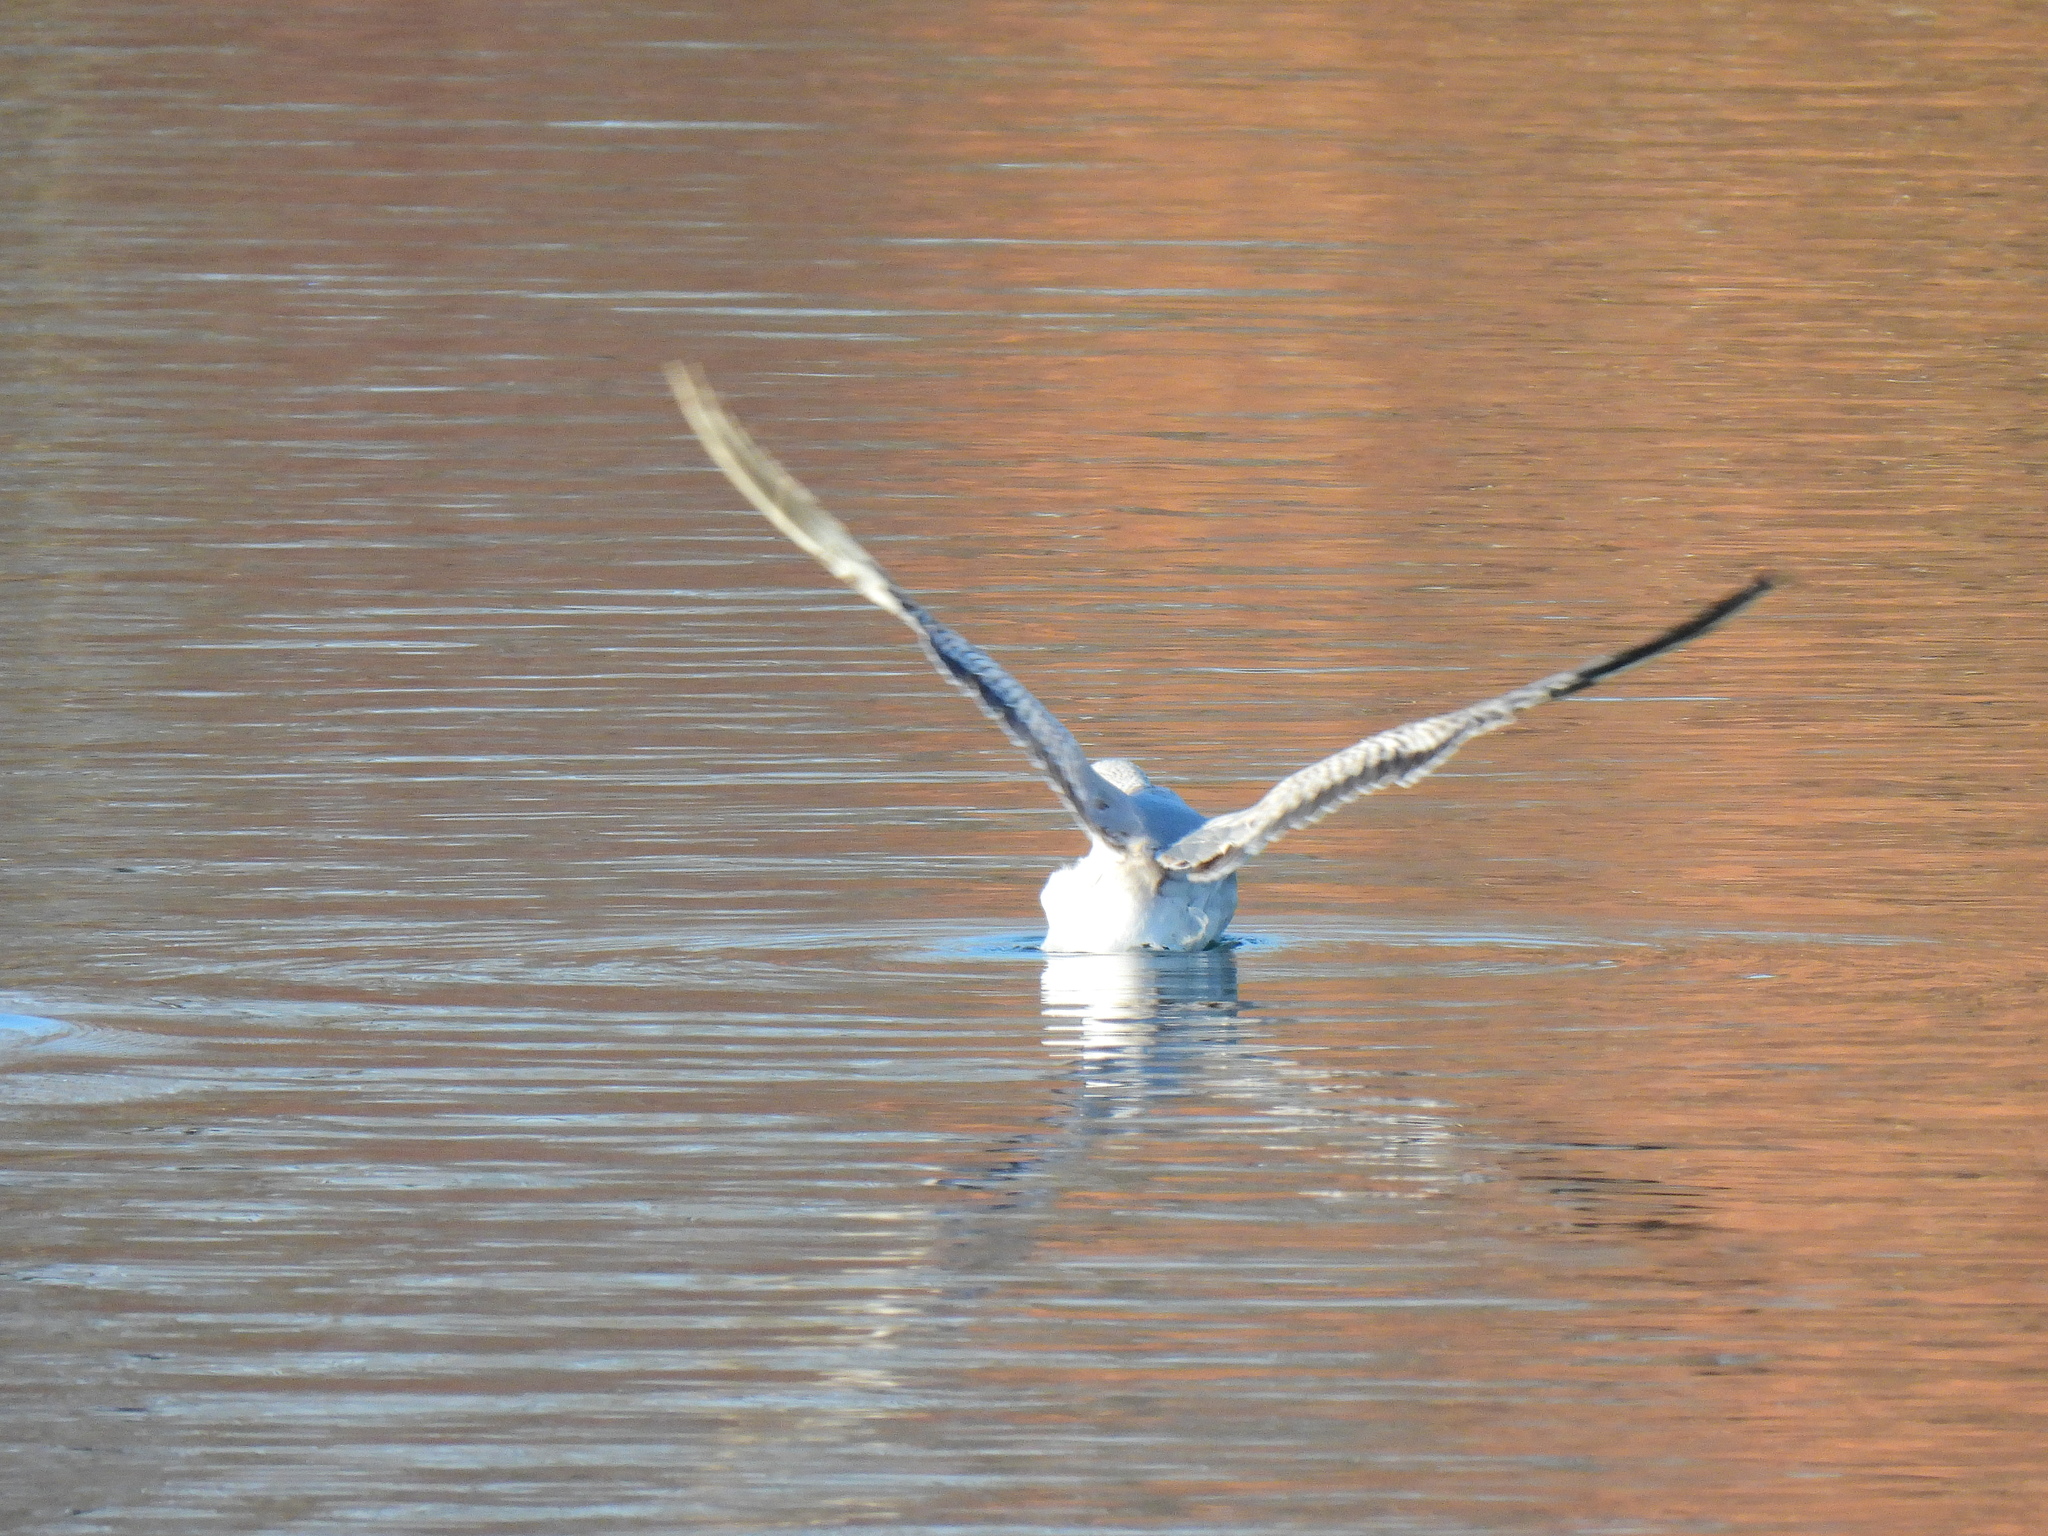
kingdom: Animalia
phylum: Chordata
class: Aves
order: Charadriiformes
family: Laridae
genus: Larus
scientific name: Larus canus
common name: Mew gull
